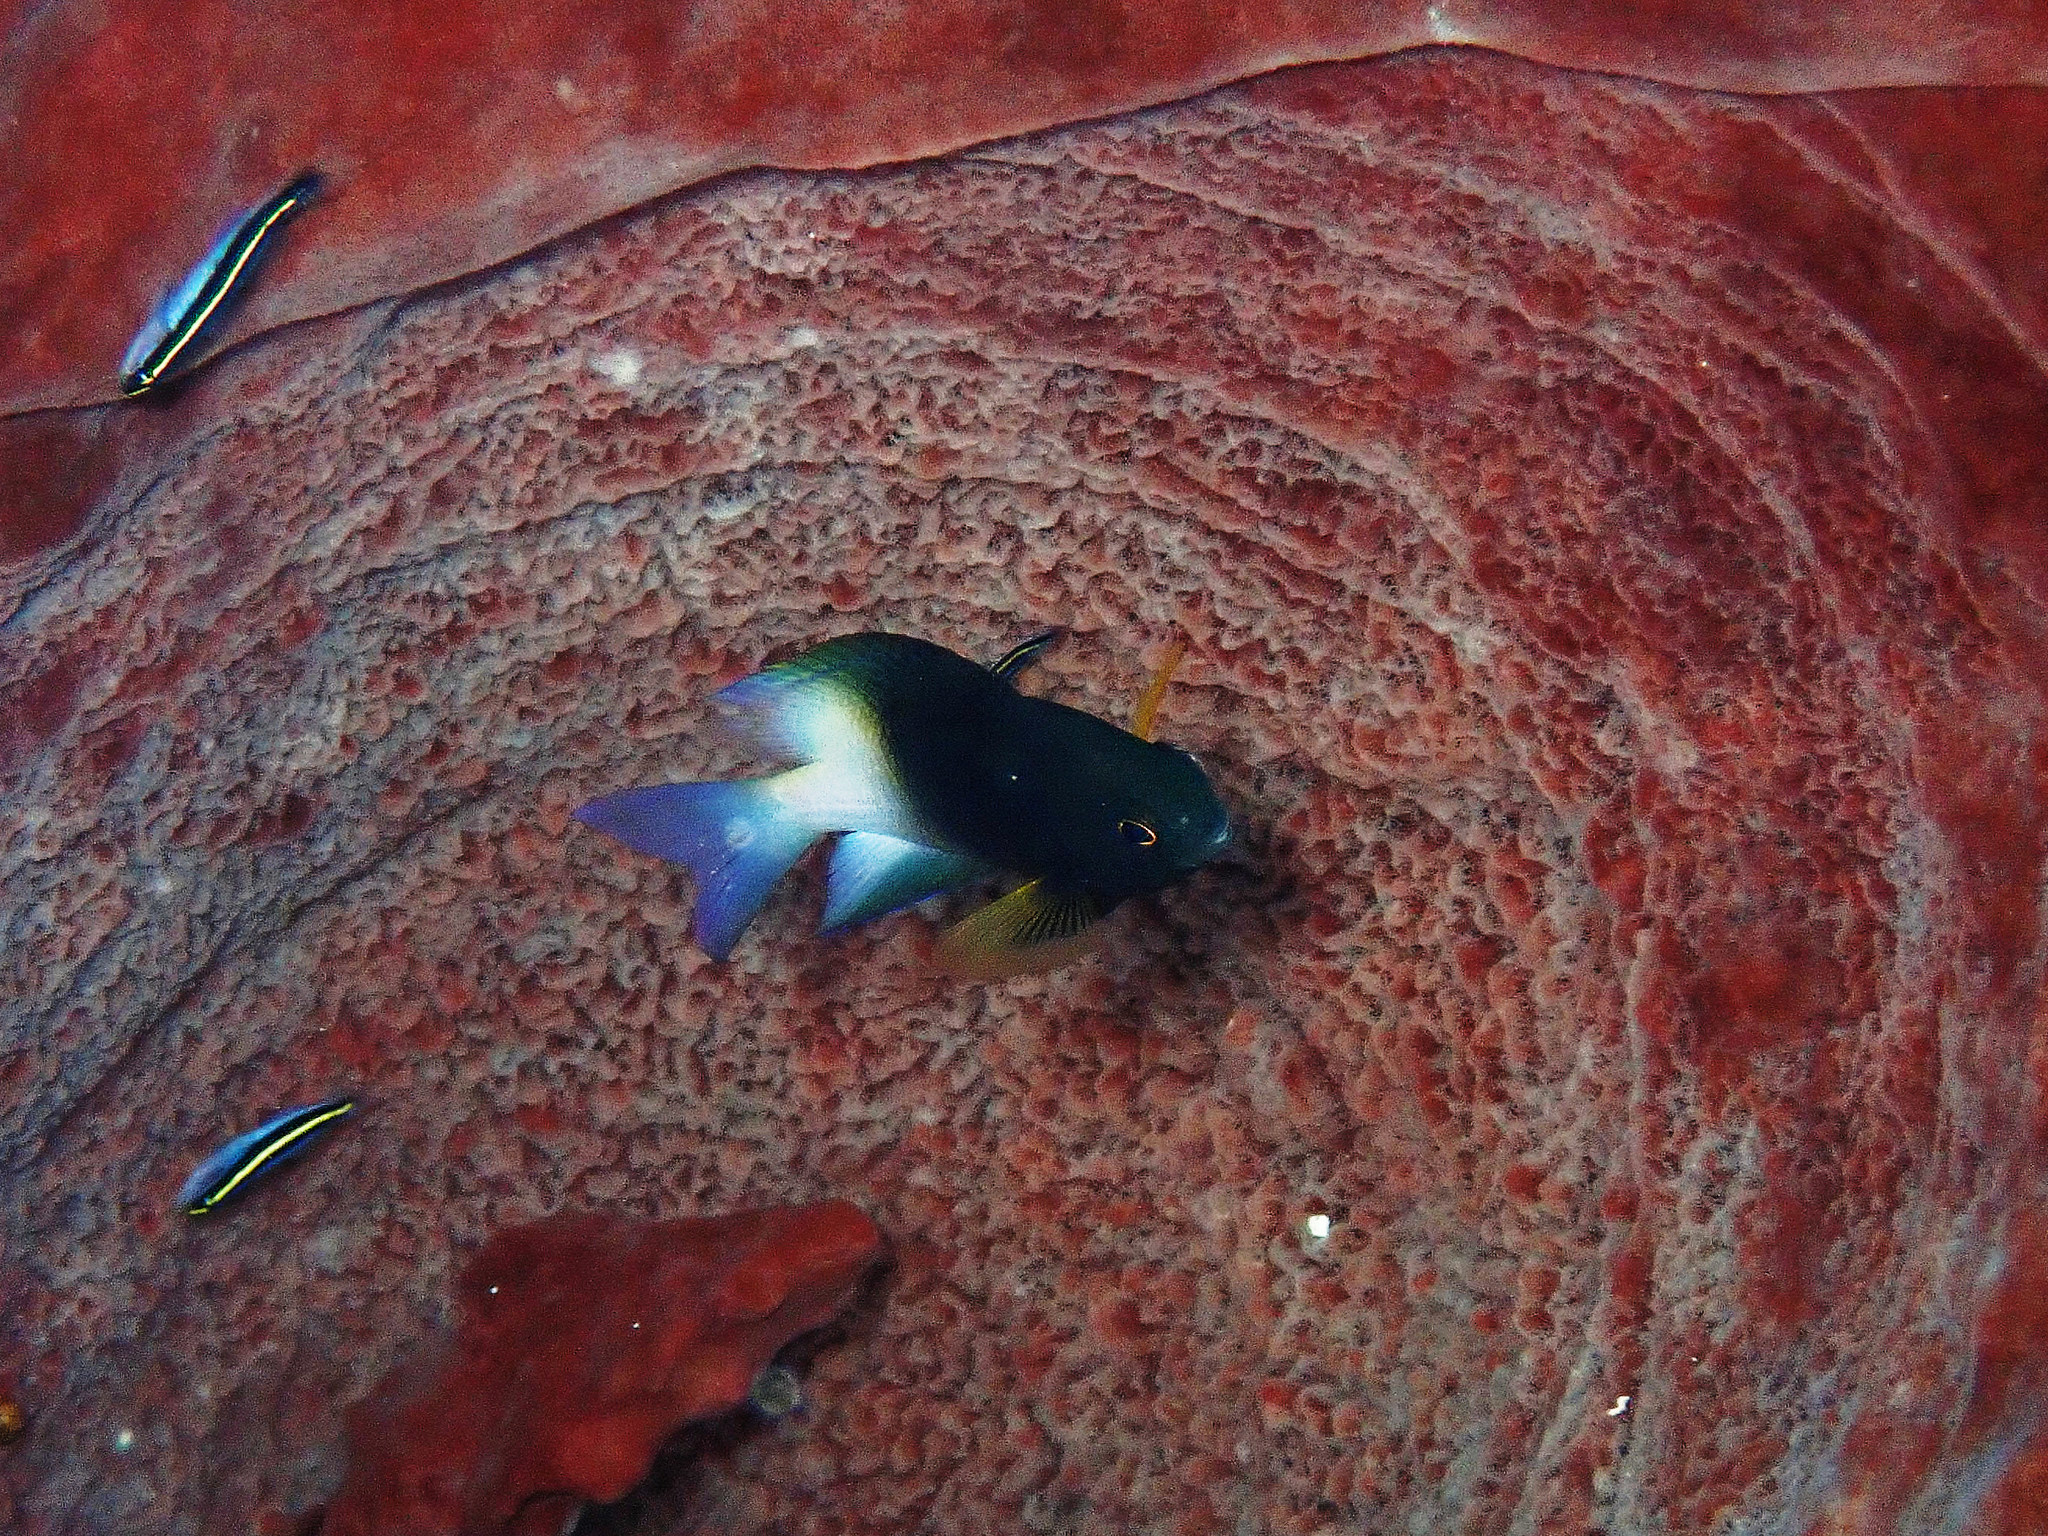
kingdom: Animalia
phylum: Chordata
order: Perciformes
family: Pomacentridae
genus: Stegastes
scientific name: Stegastes partitus
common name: Bicolor damselfish
